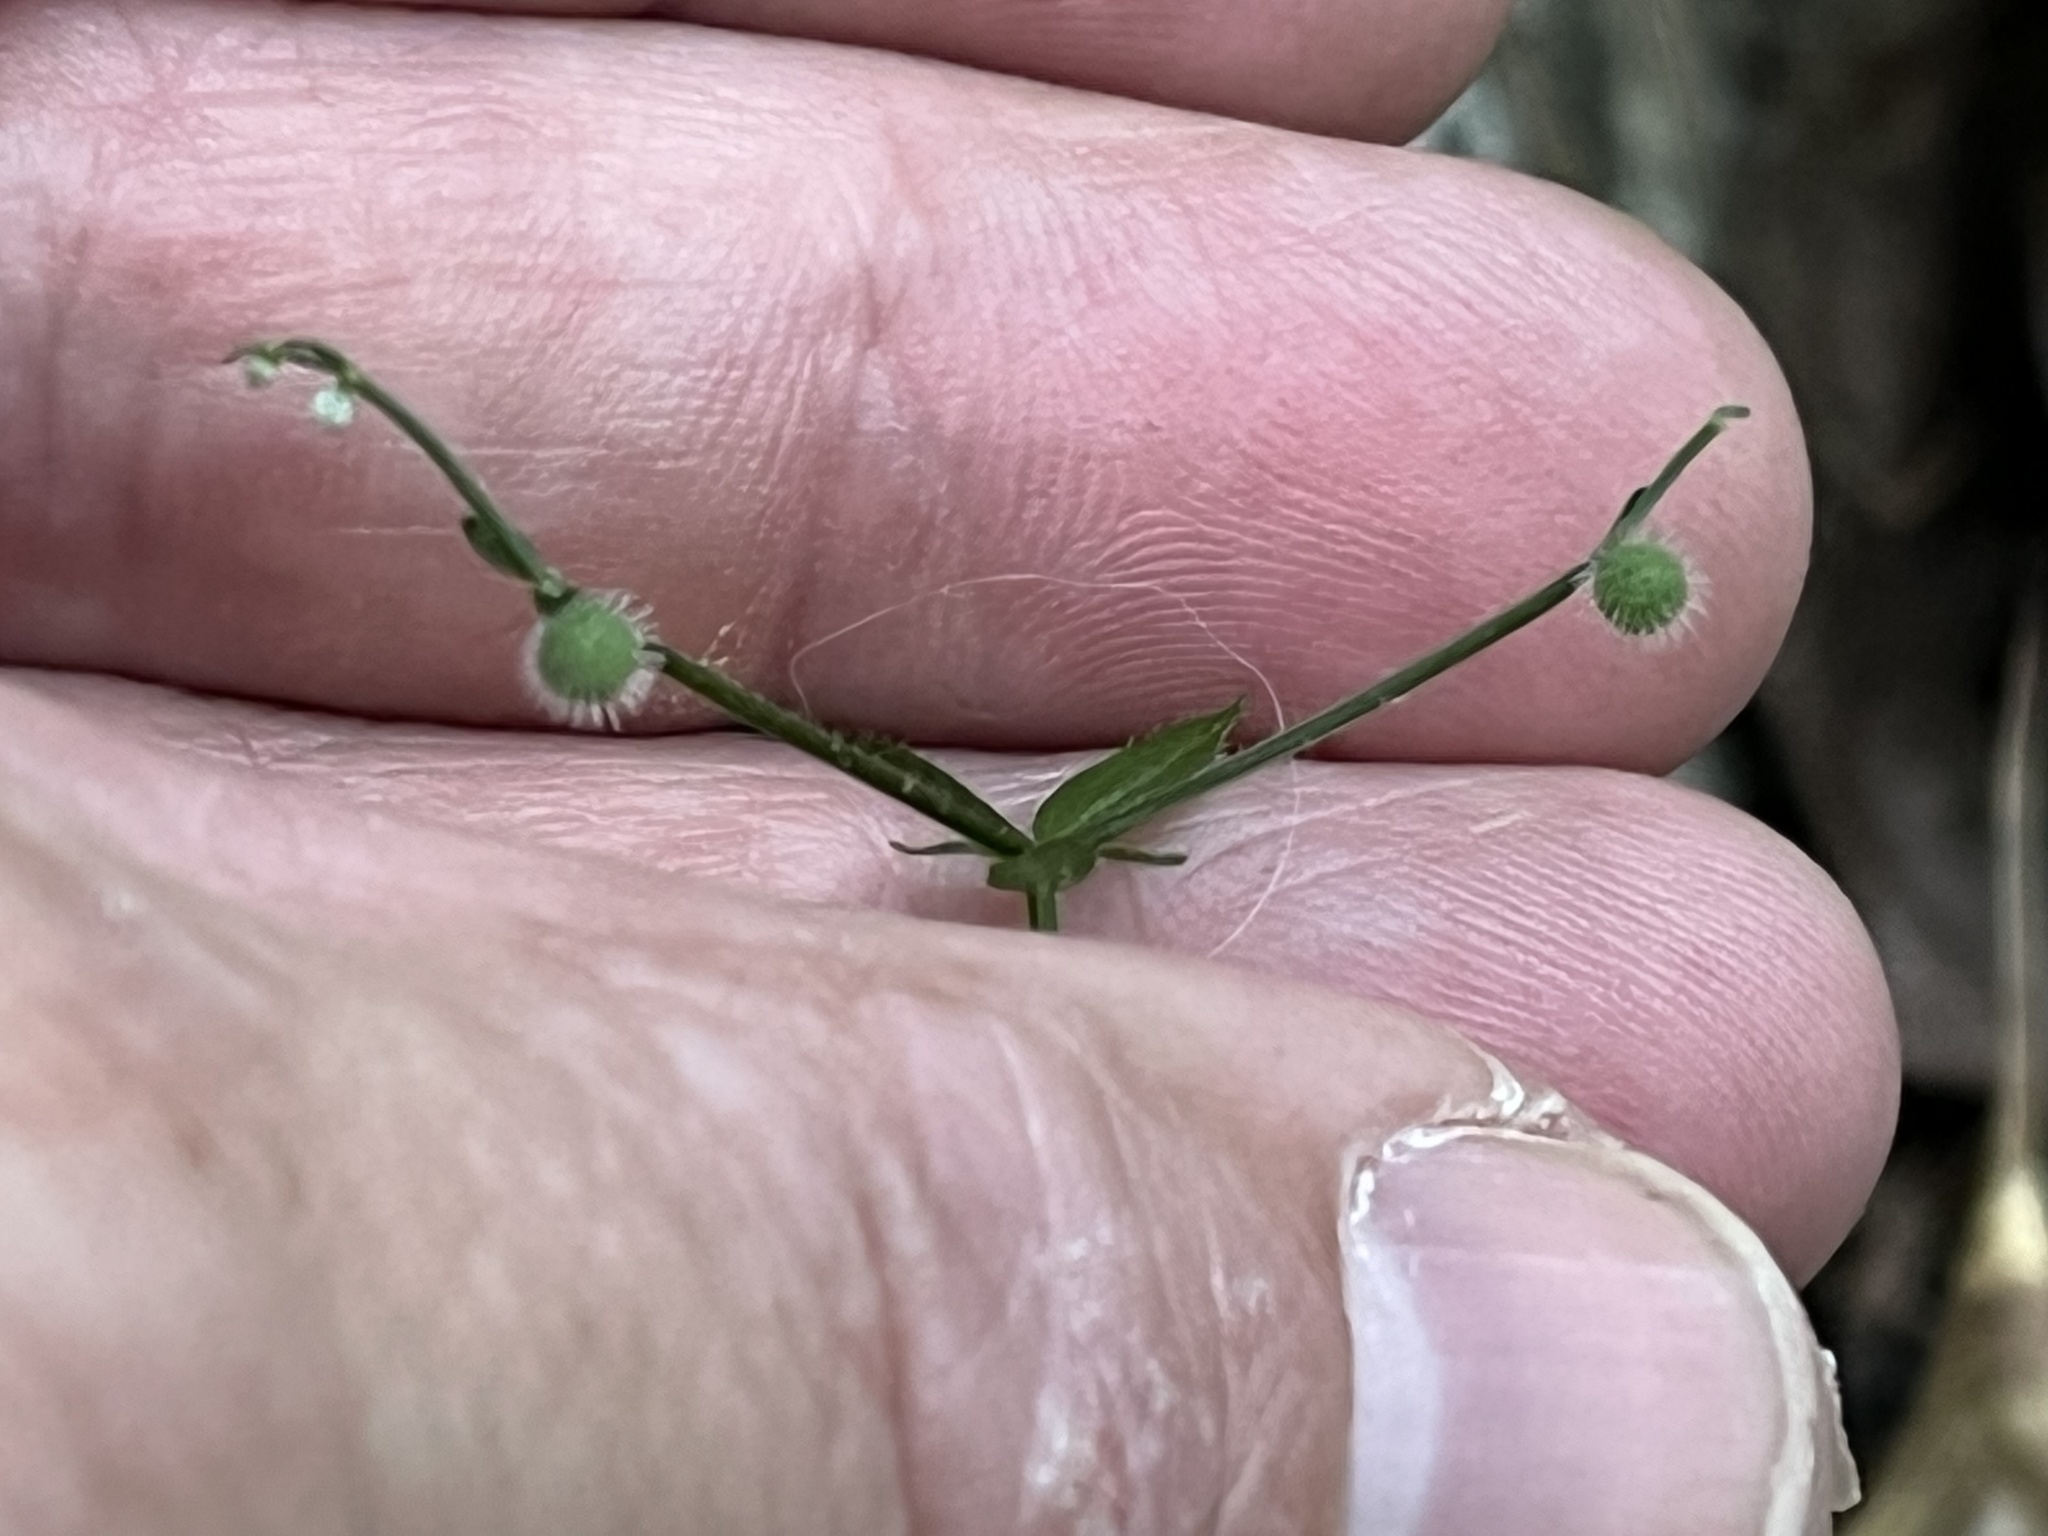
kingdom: Plantae
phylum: Tracheophyta
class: Magnoliopsida
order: Gentianales
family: Rubiaceae
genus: Galium
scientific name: Galium circaezans
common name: Forest bedstraw
